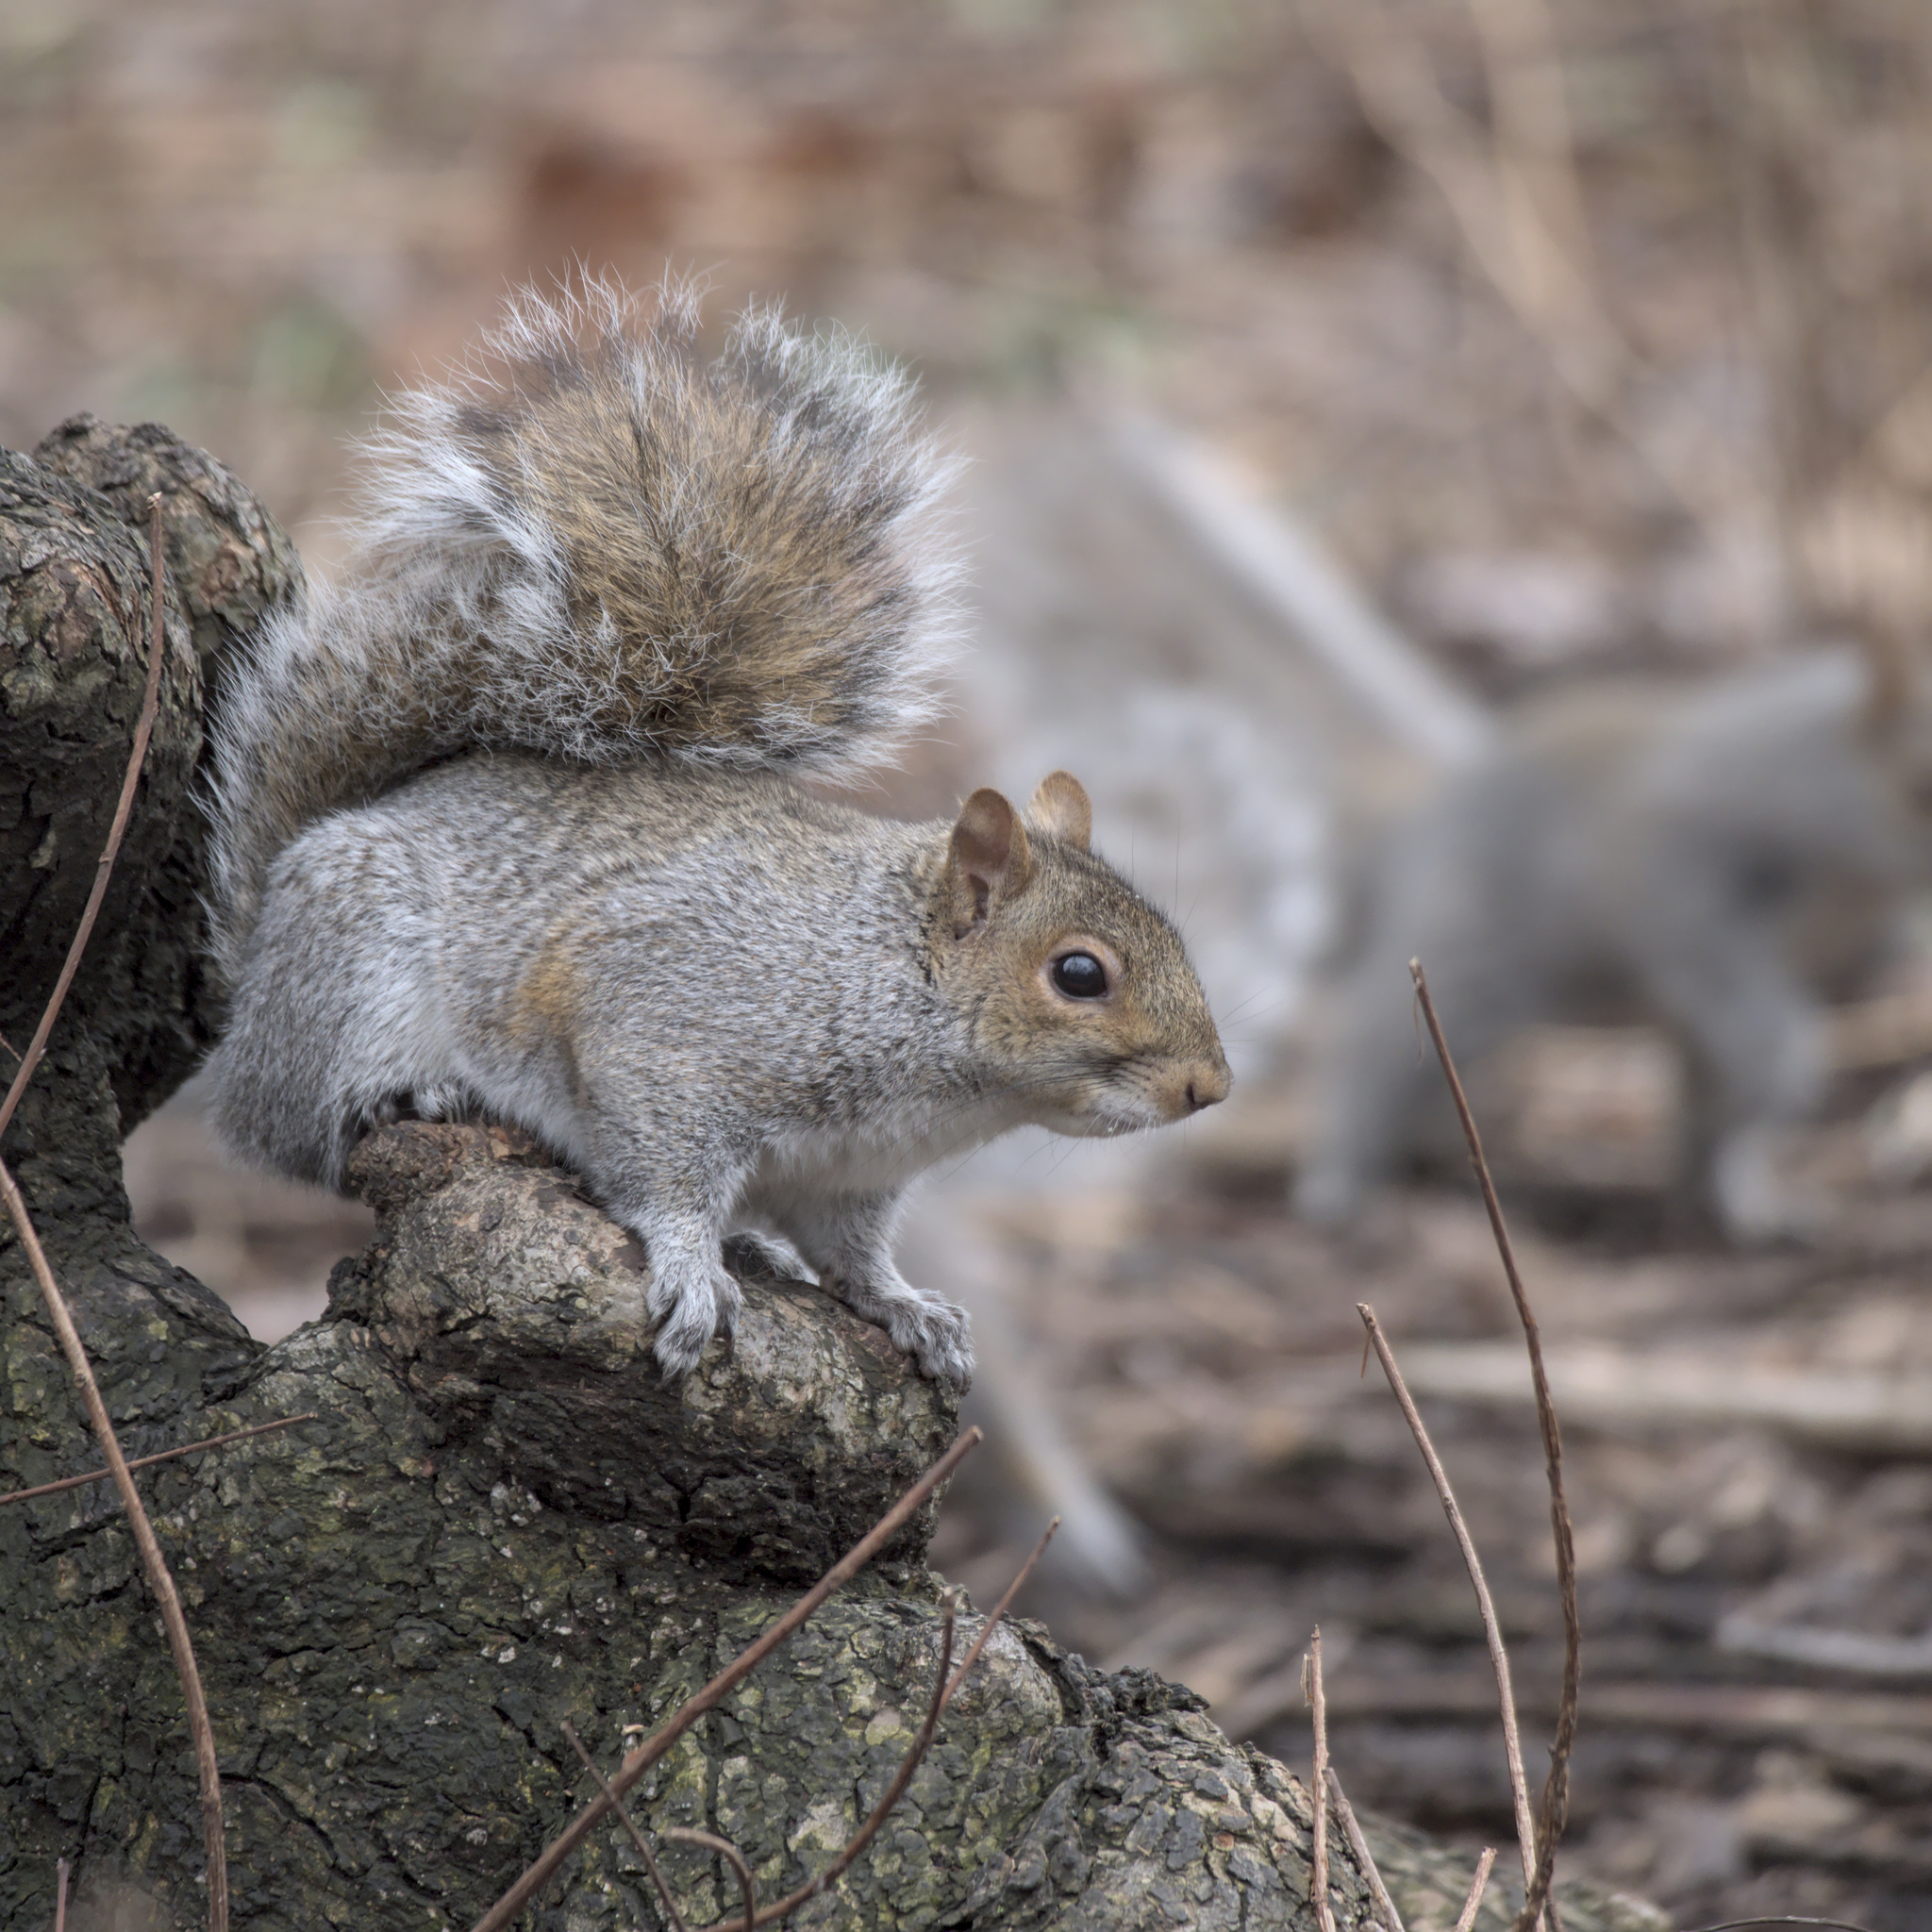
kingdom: Animalia
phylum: Chordata
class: Mammalia
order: Rodentia
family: Sciuridae
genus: Sciurus
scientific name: Sciurus carolinensis
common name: Eastern gray squirrel
